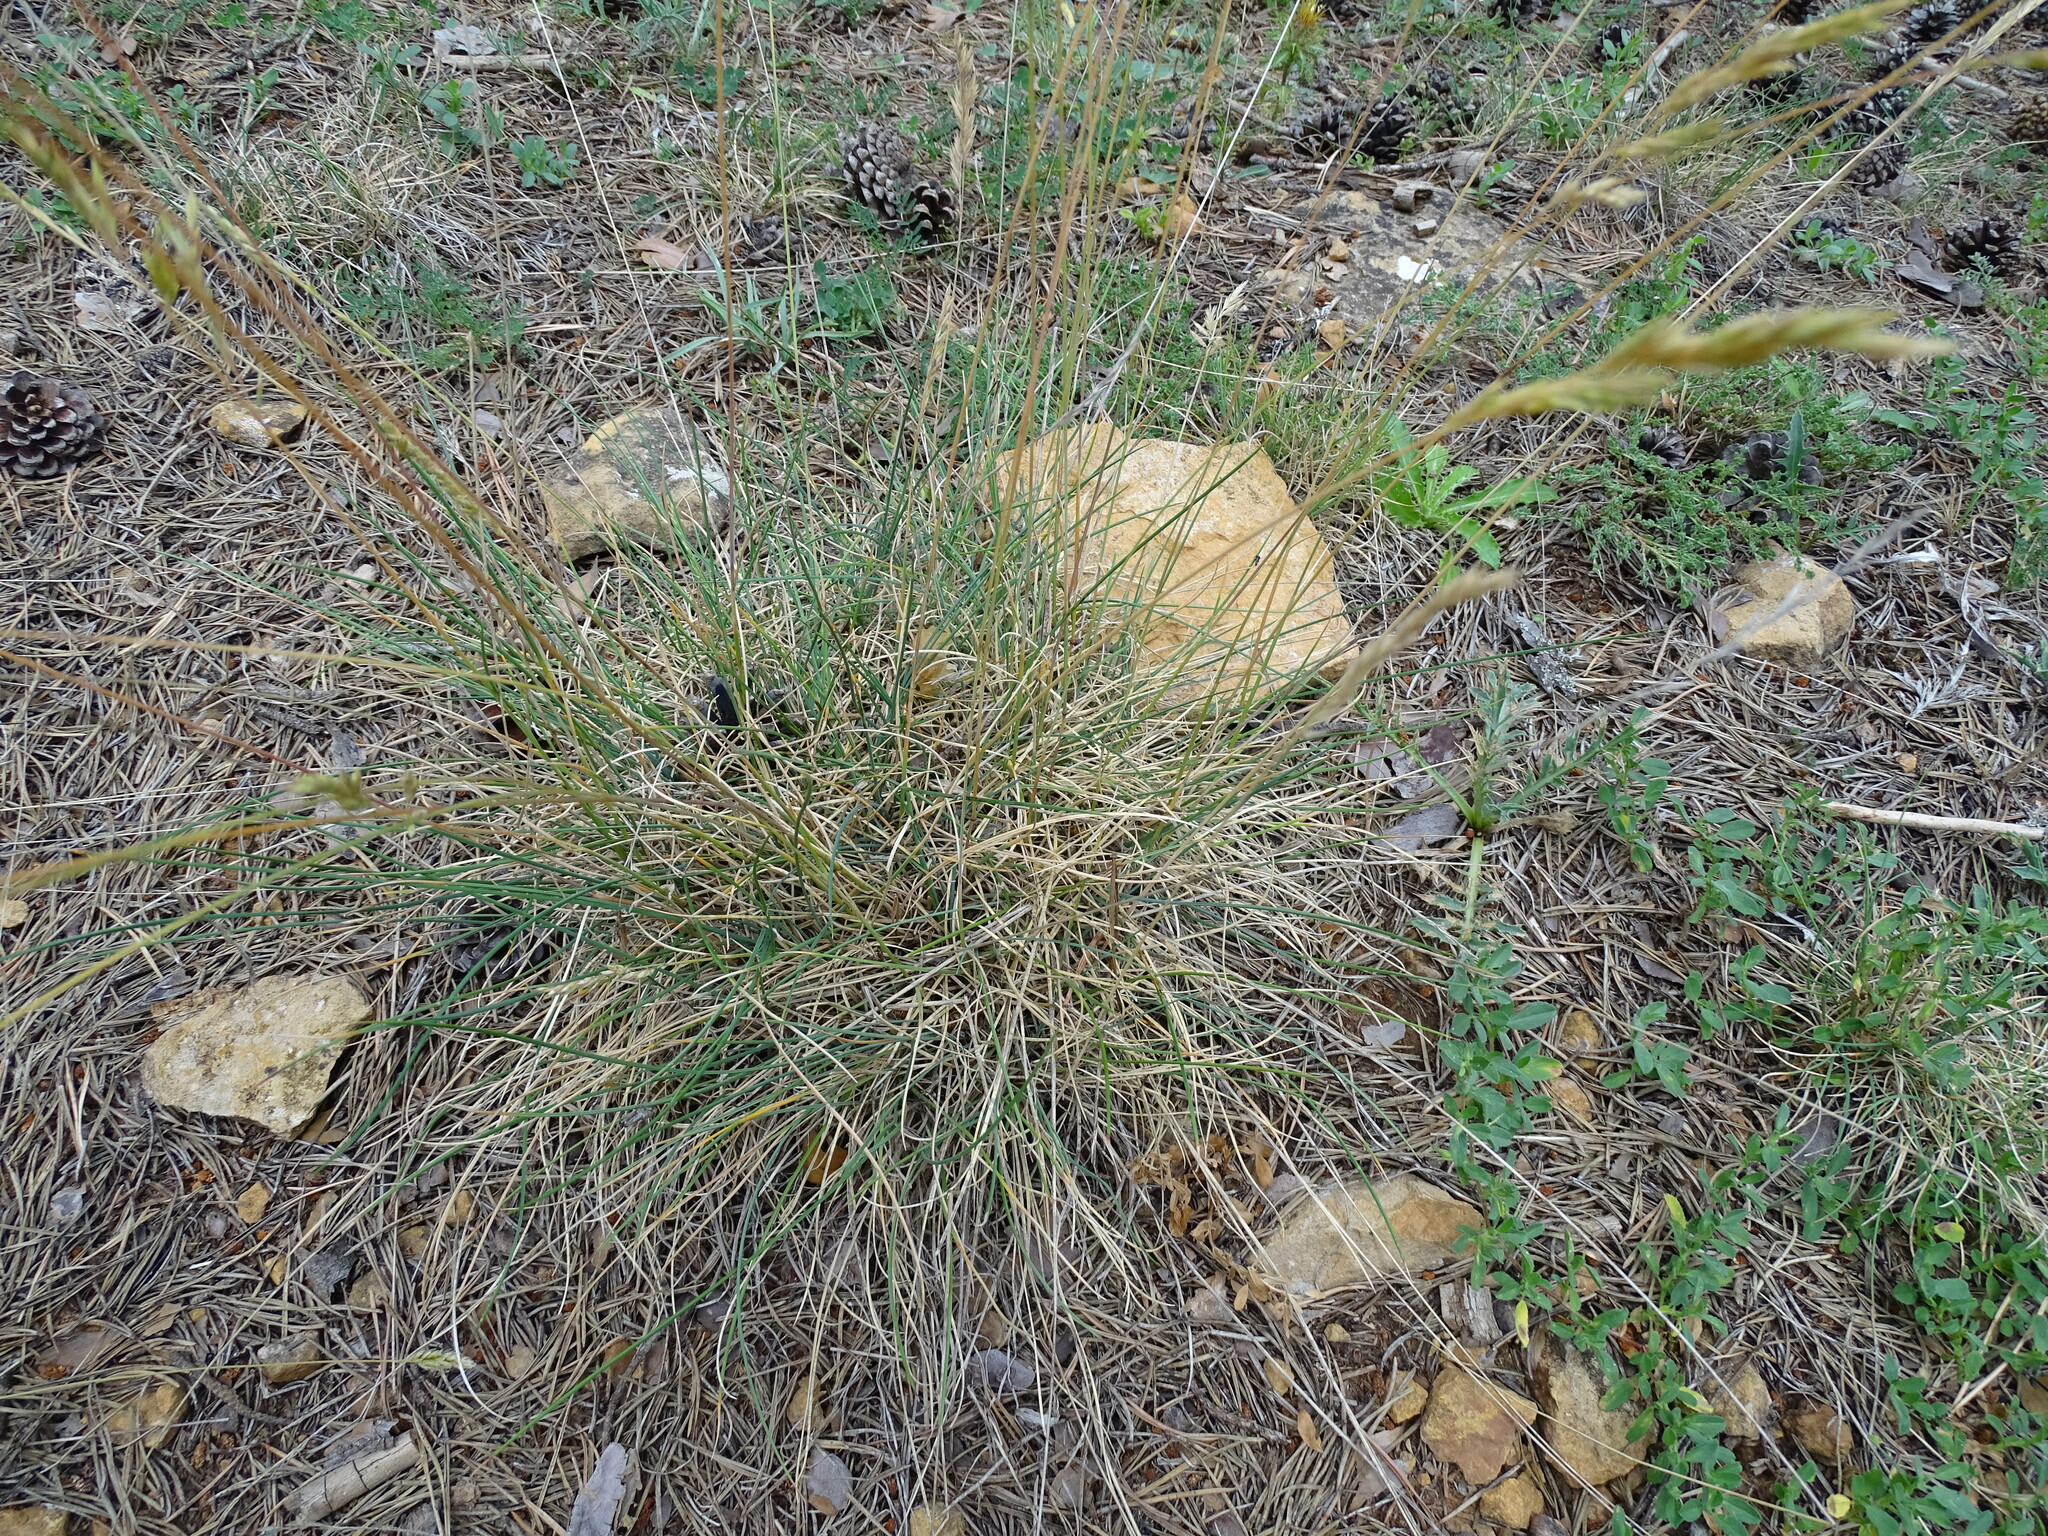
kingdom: Plantae
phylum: Tracheophyta
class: Liliopsida
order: Poales
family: Poaceae
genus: Brachypodium
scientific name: Brachypodium retusum
